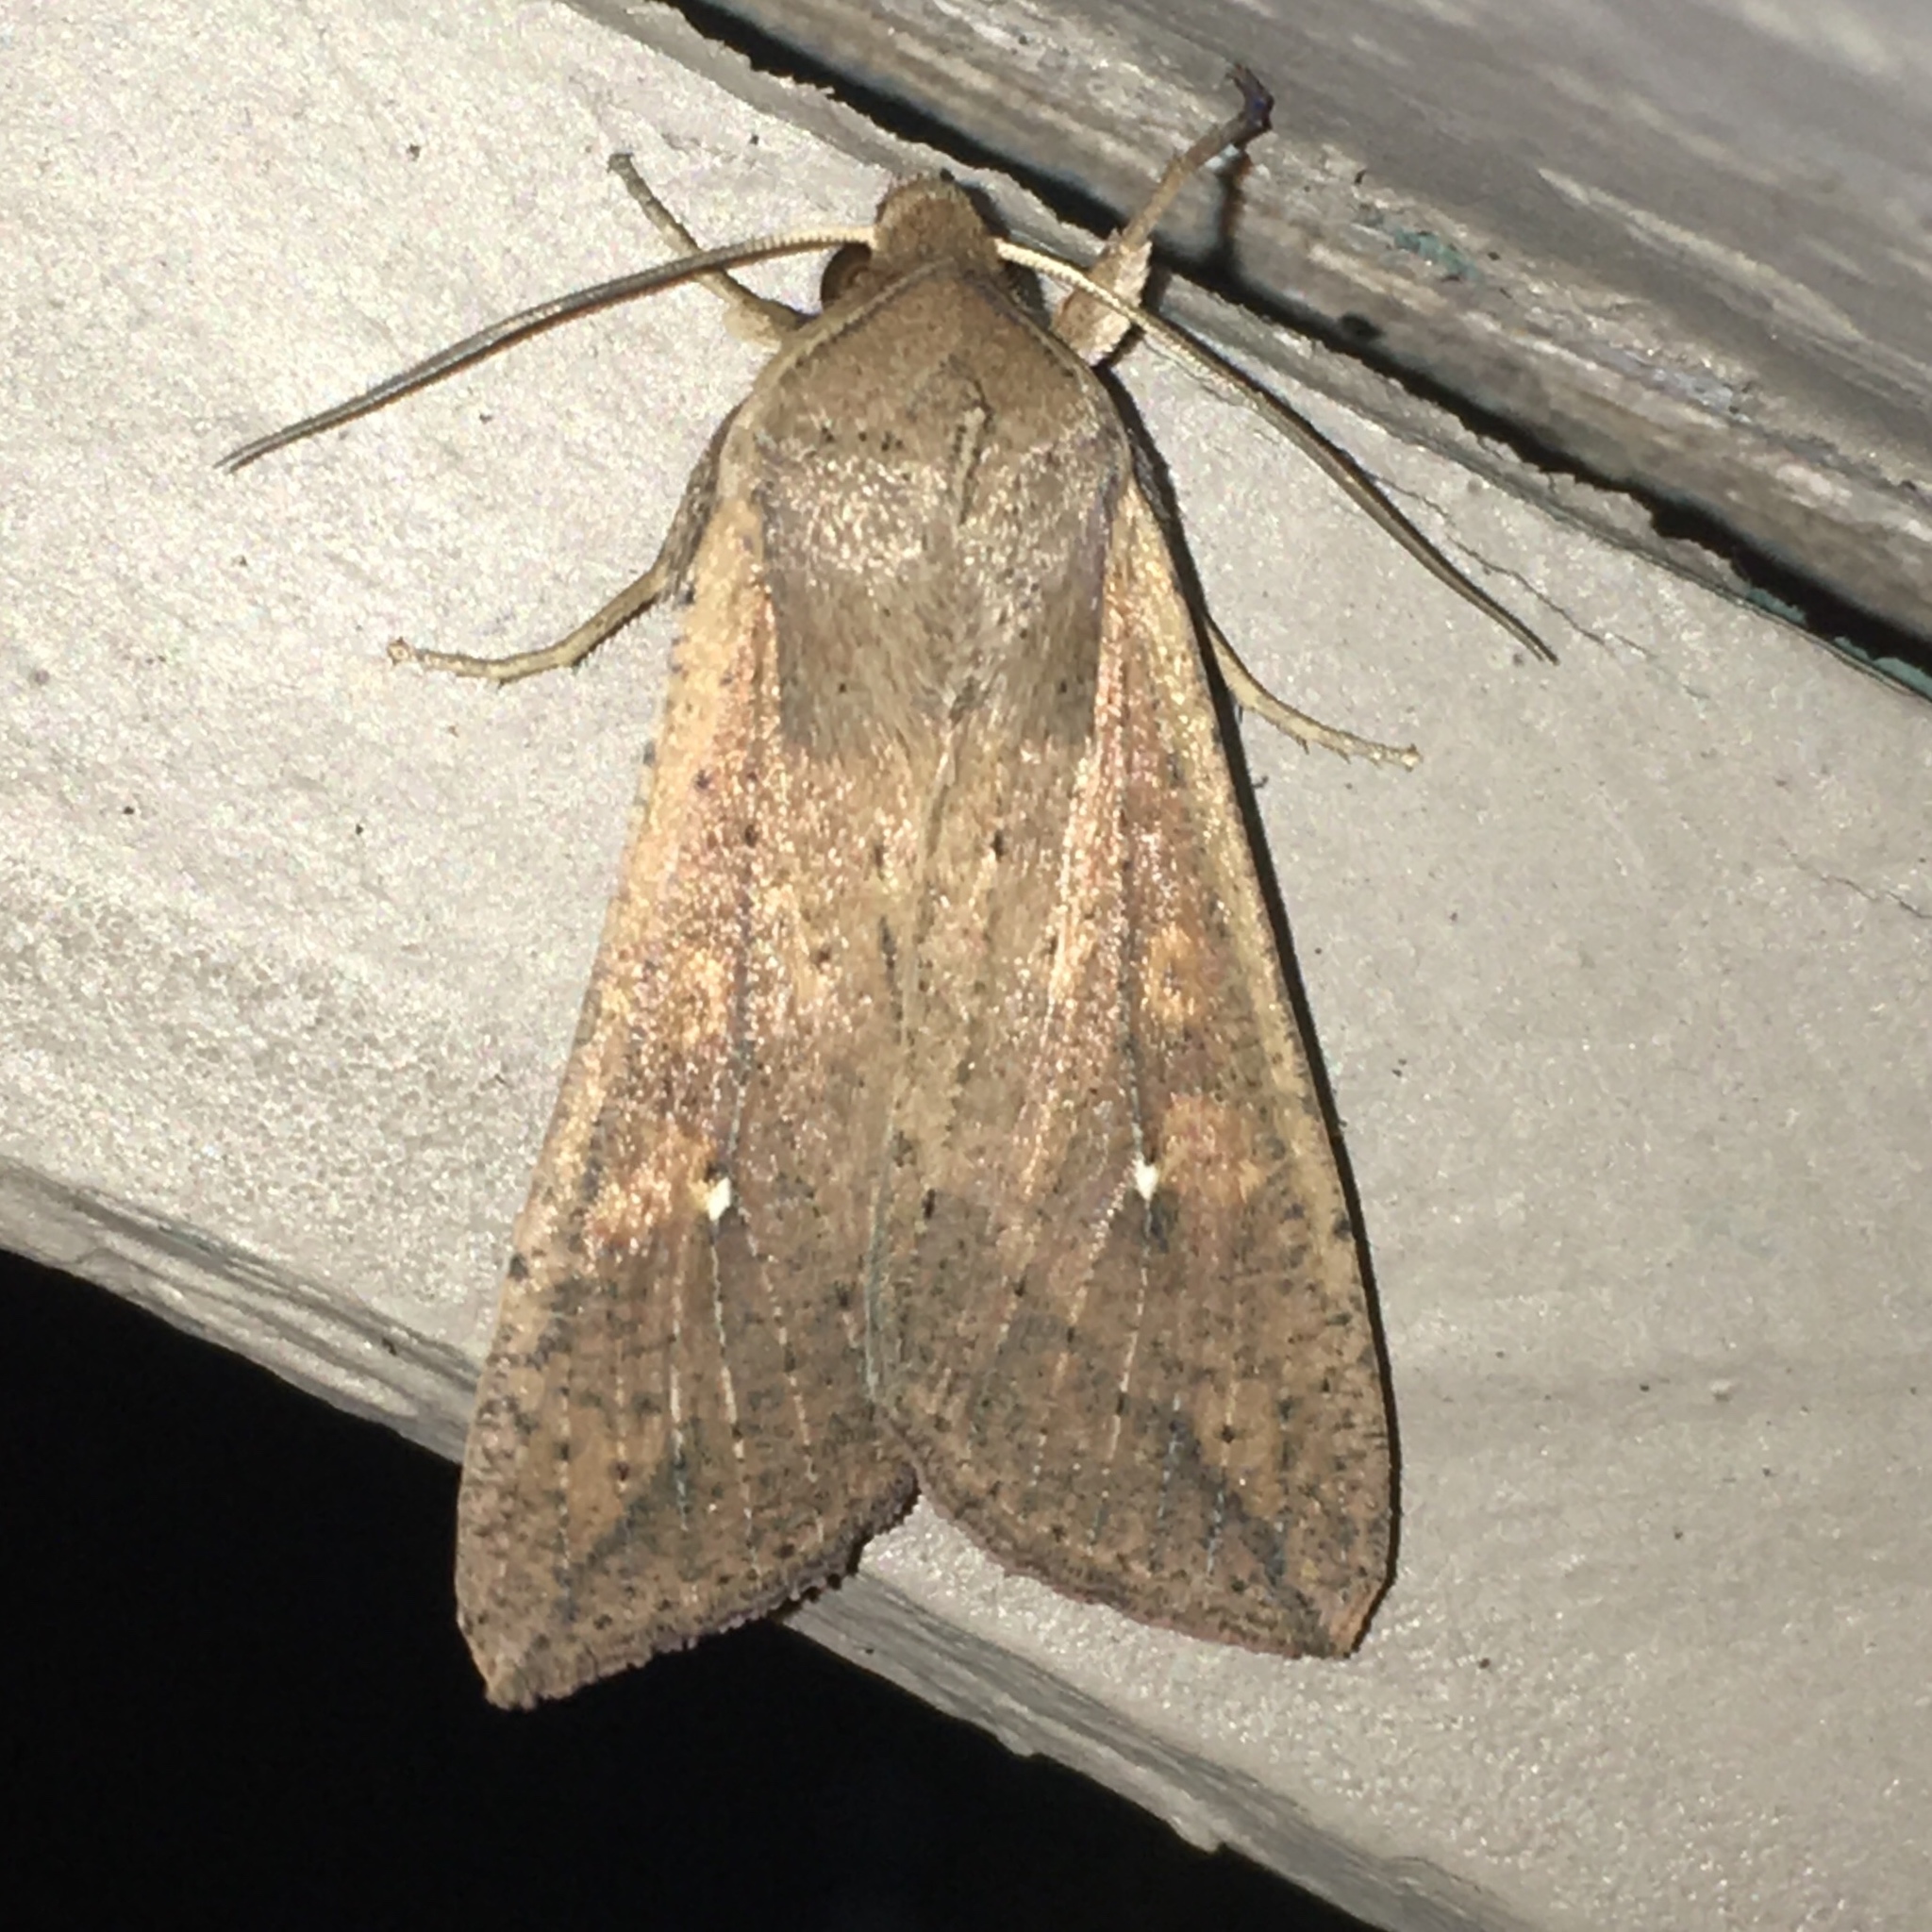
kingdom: Animalia
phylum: Arthropoda
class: Insecta
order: Lepidoptera
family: Noctuidae
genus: Mythimna
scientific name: Mythimna unipuncta
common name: White-speck
